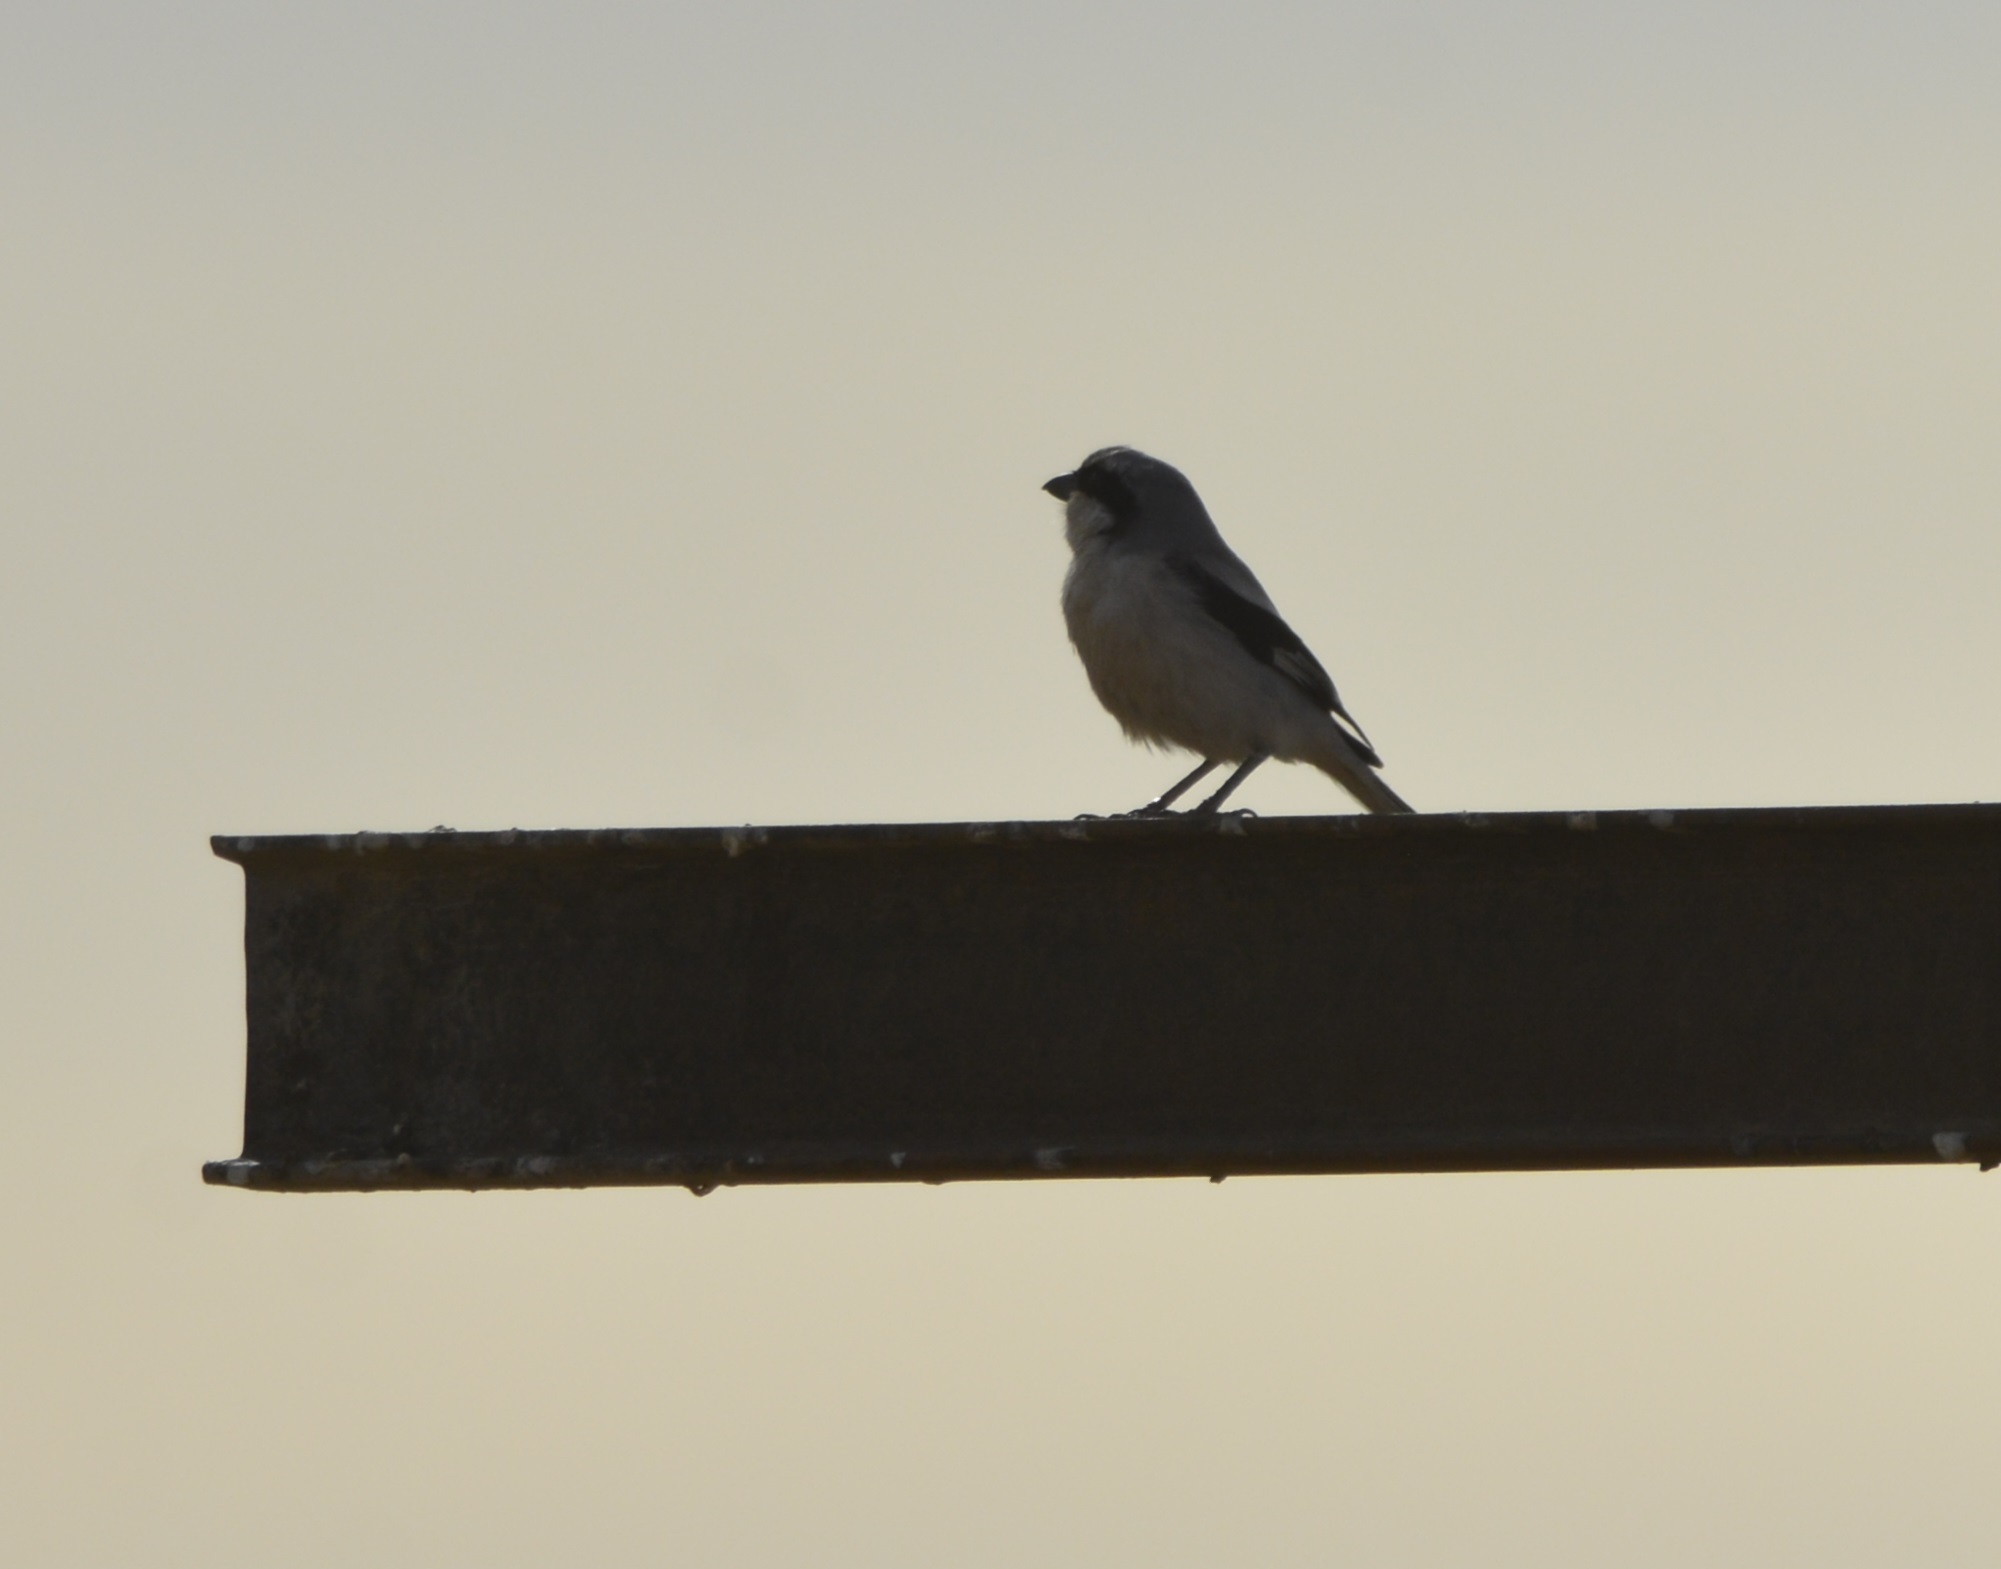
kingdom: Animalia
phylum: Chordata
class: Aves
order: Passeriformes
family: Laniidae
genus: Lanius
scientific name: Lanius excubitor
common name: Great grey shrike
